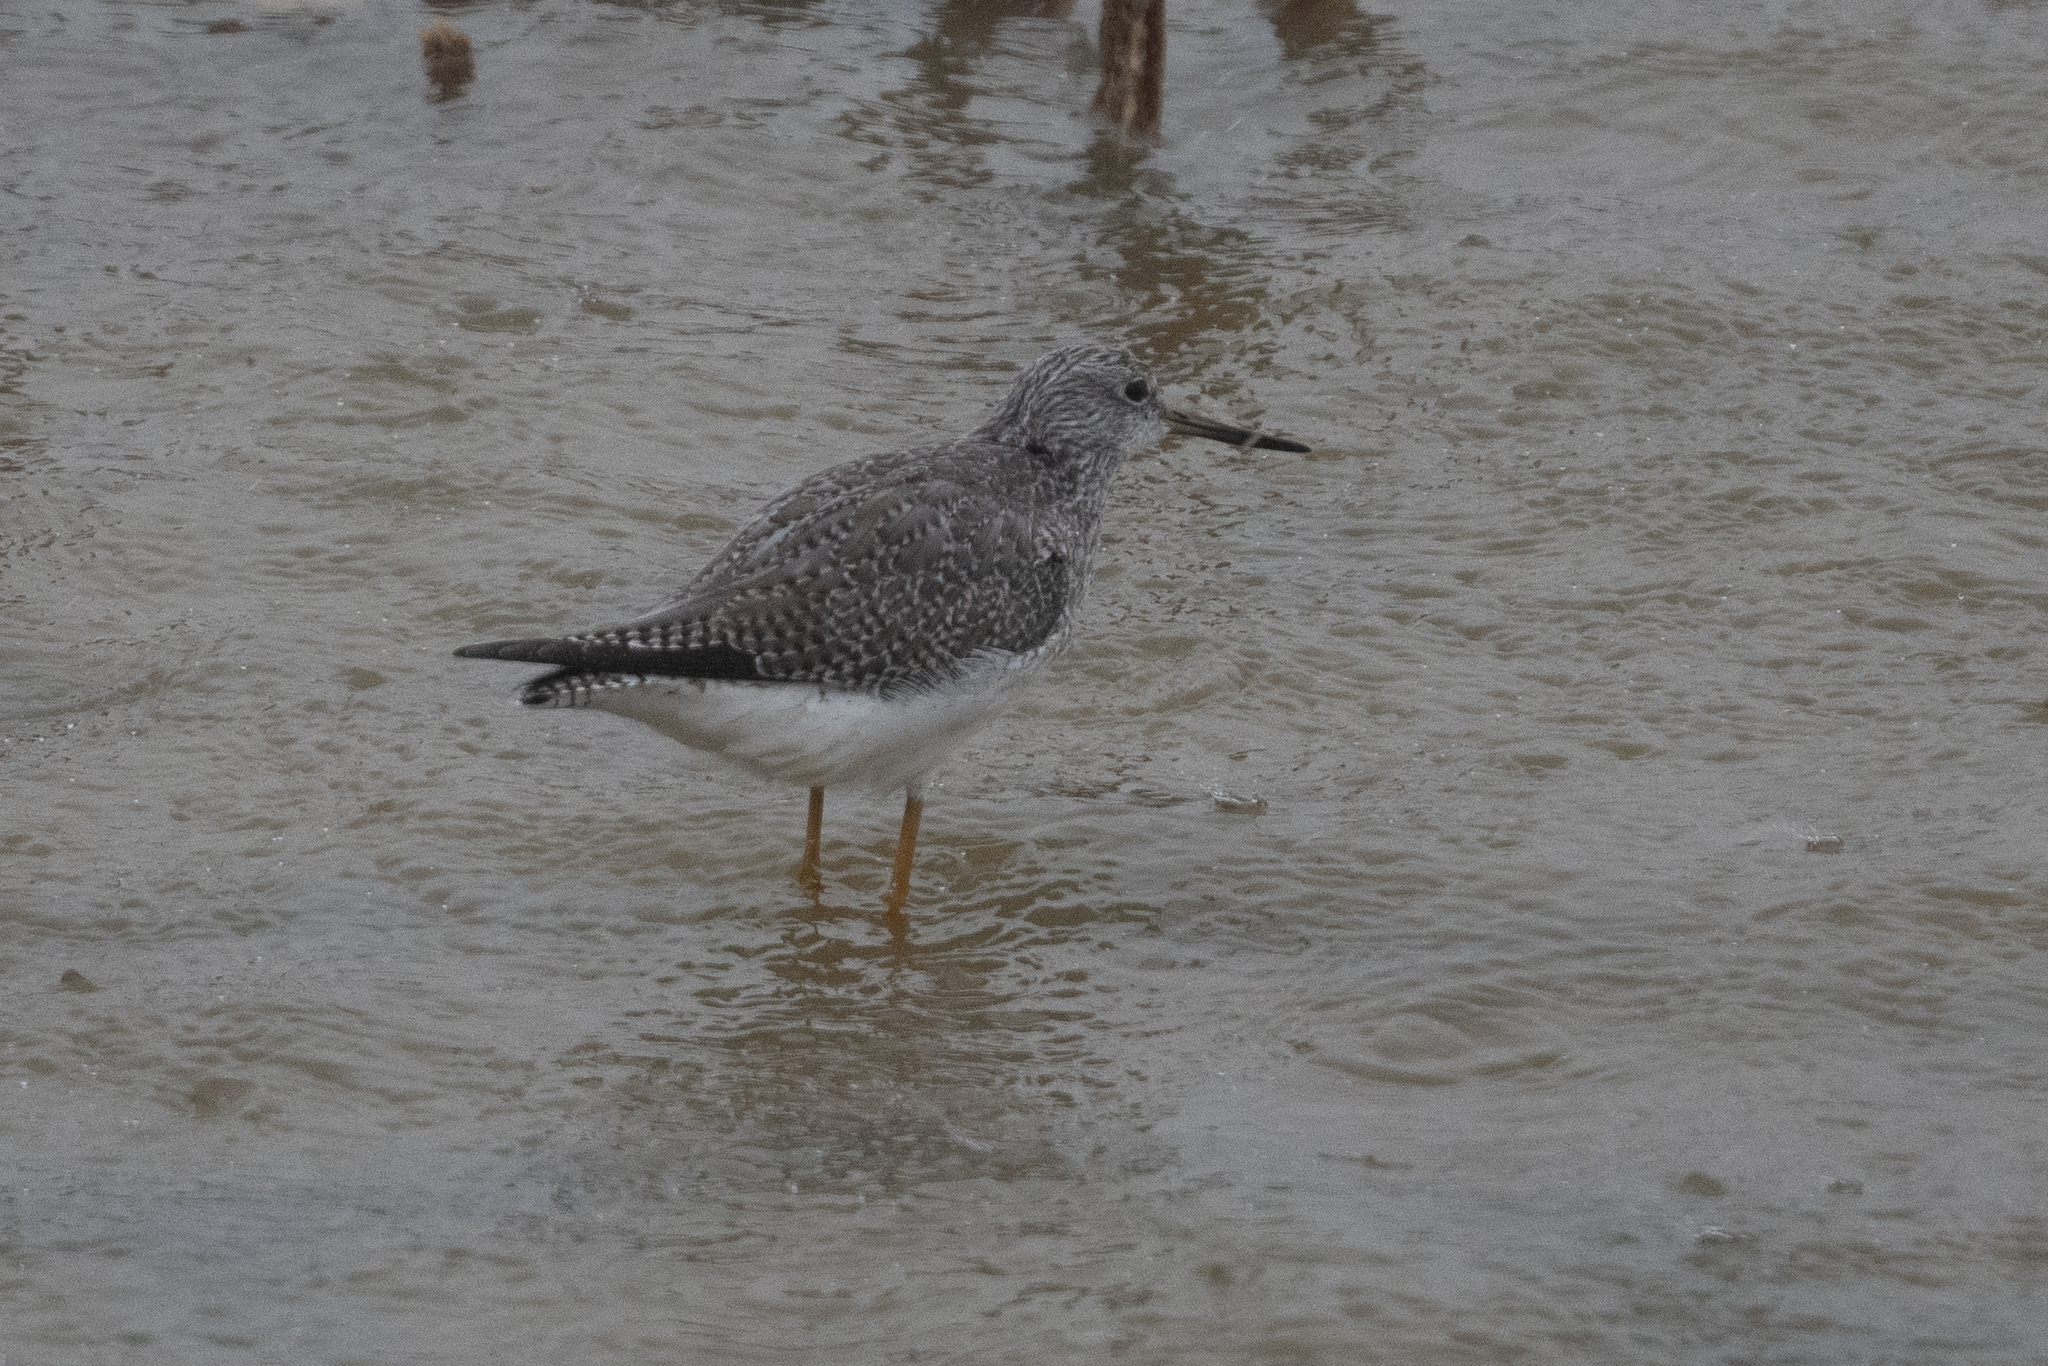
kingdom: Animalia
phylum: Chordata
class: Aves
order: Charadriiformes
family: Scolopacidae
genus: Tringa
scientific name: Tringa melanoleuca
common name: Greater yellowlegs
